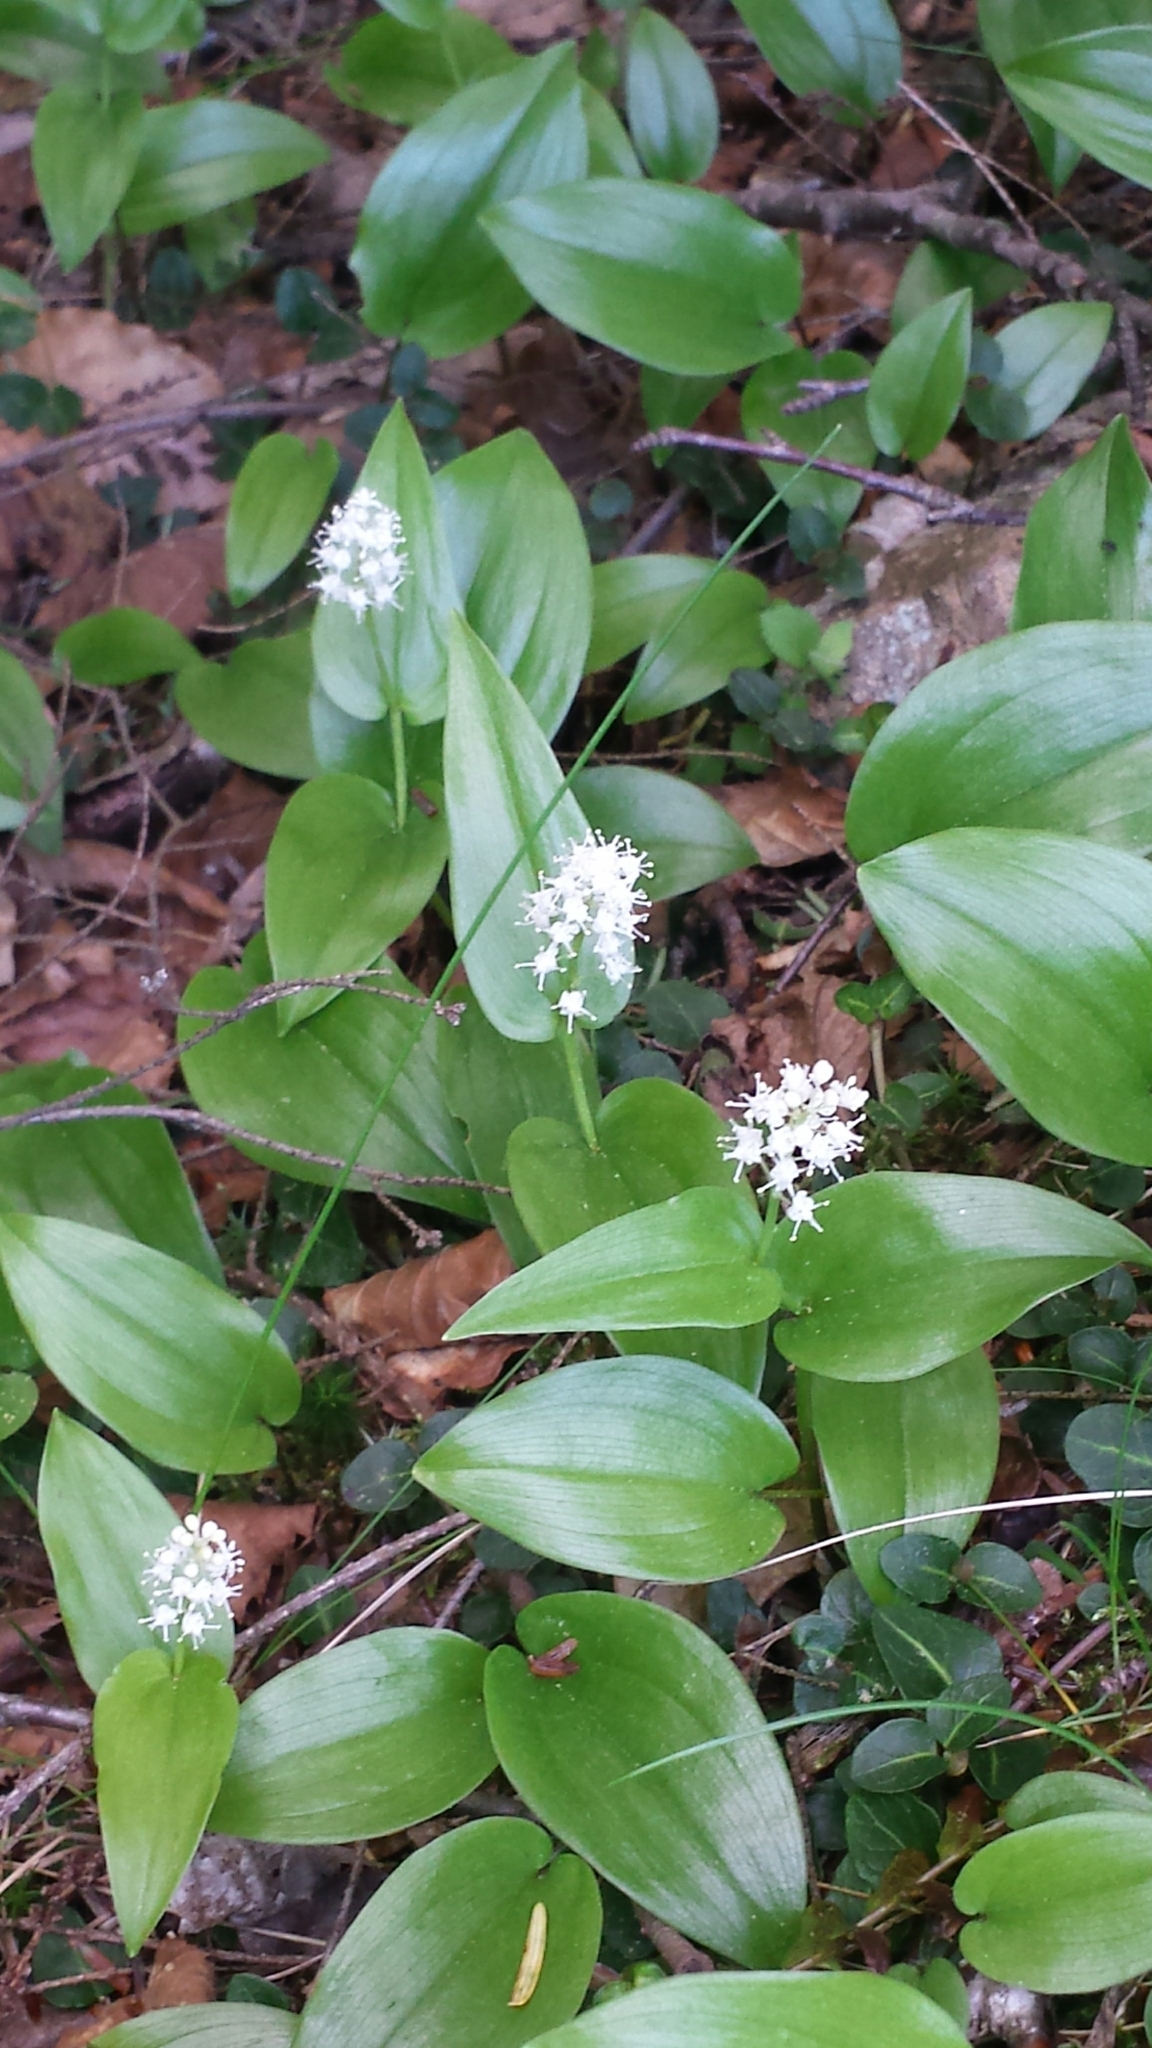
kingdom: Plantae
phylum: Tracheophyta
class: Liliopsida
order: Asparagales
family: Asparagaceae
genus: Maianthemum
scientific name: Maianthemum canadense
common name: False lily-of-the-valley
